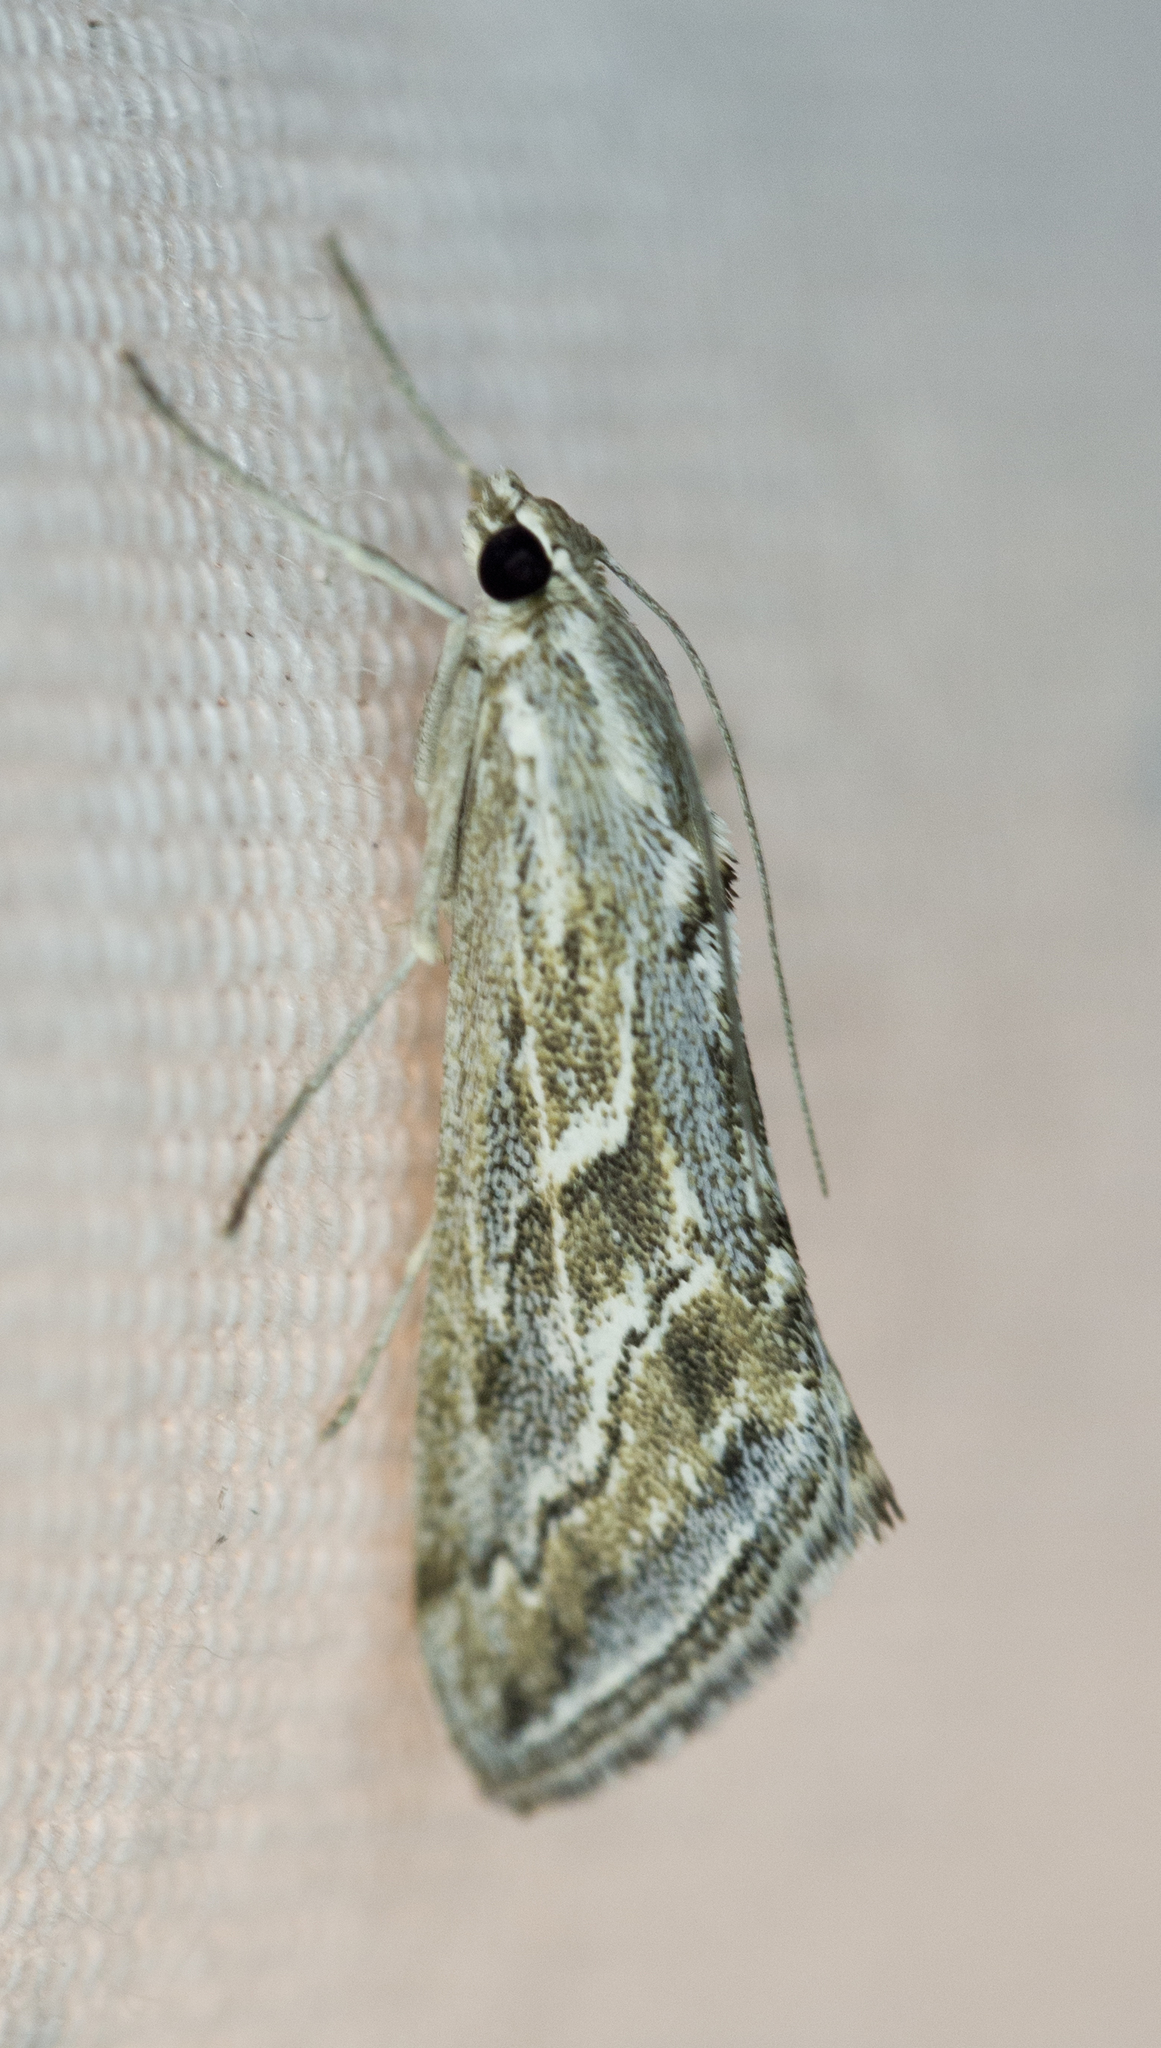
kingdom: Animalia
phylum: Arthropoda
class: Insecta
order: Lepidoptera
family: Crambidae
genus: Evergestis
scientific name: Evergestis vinctalis
